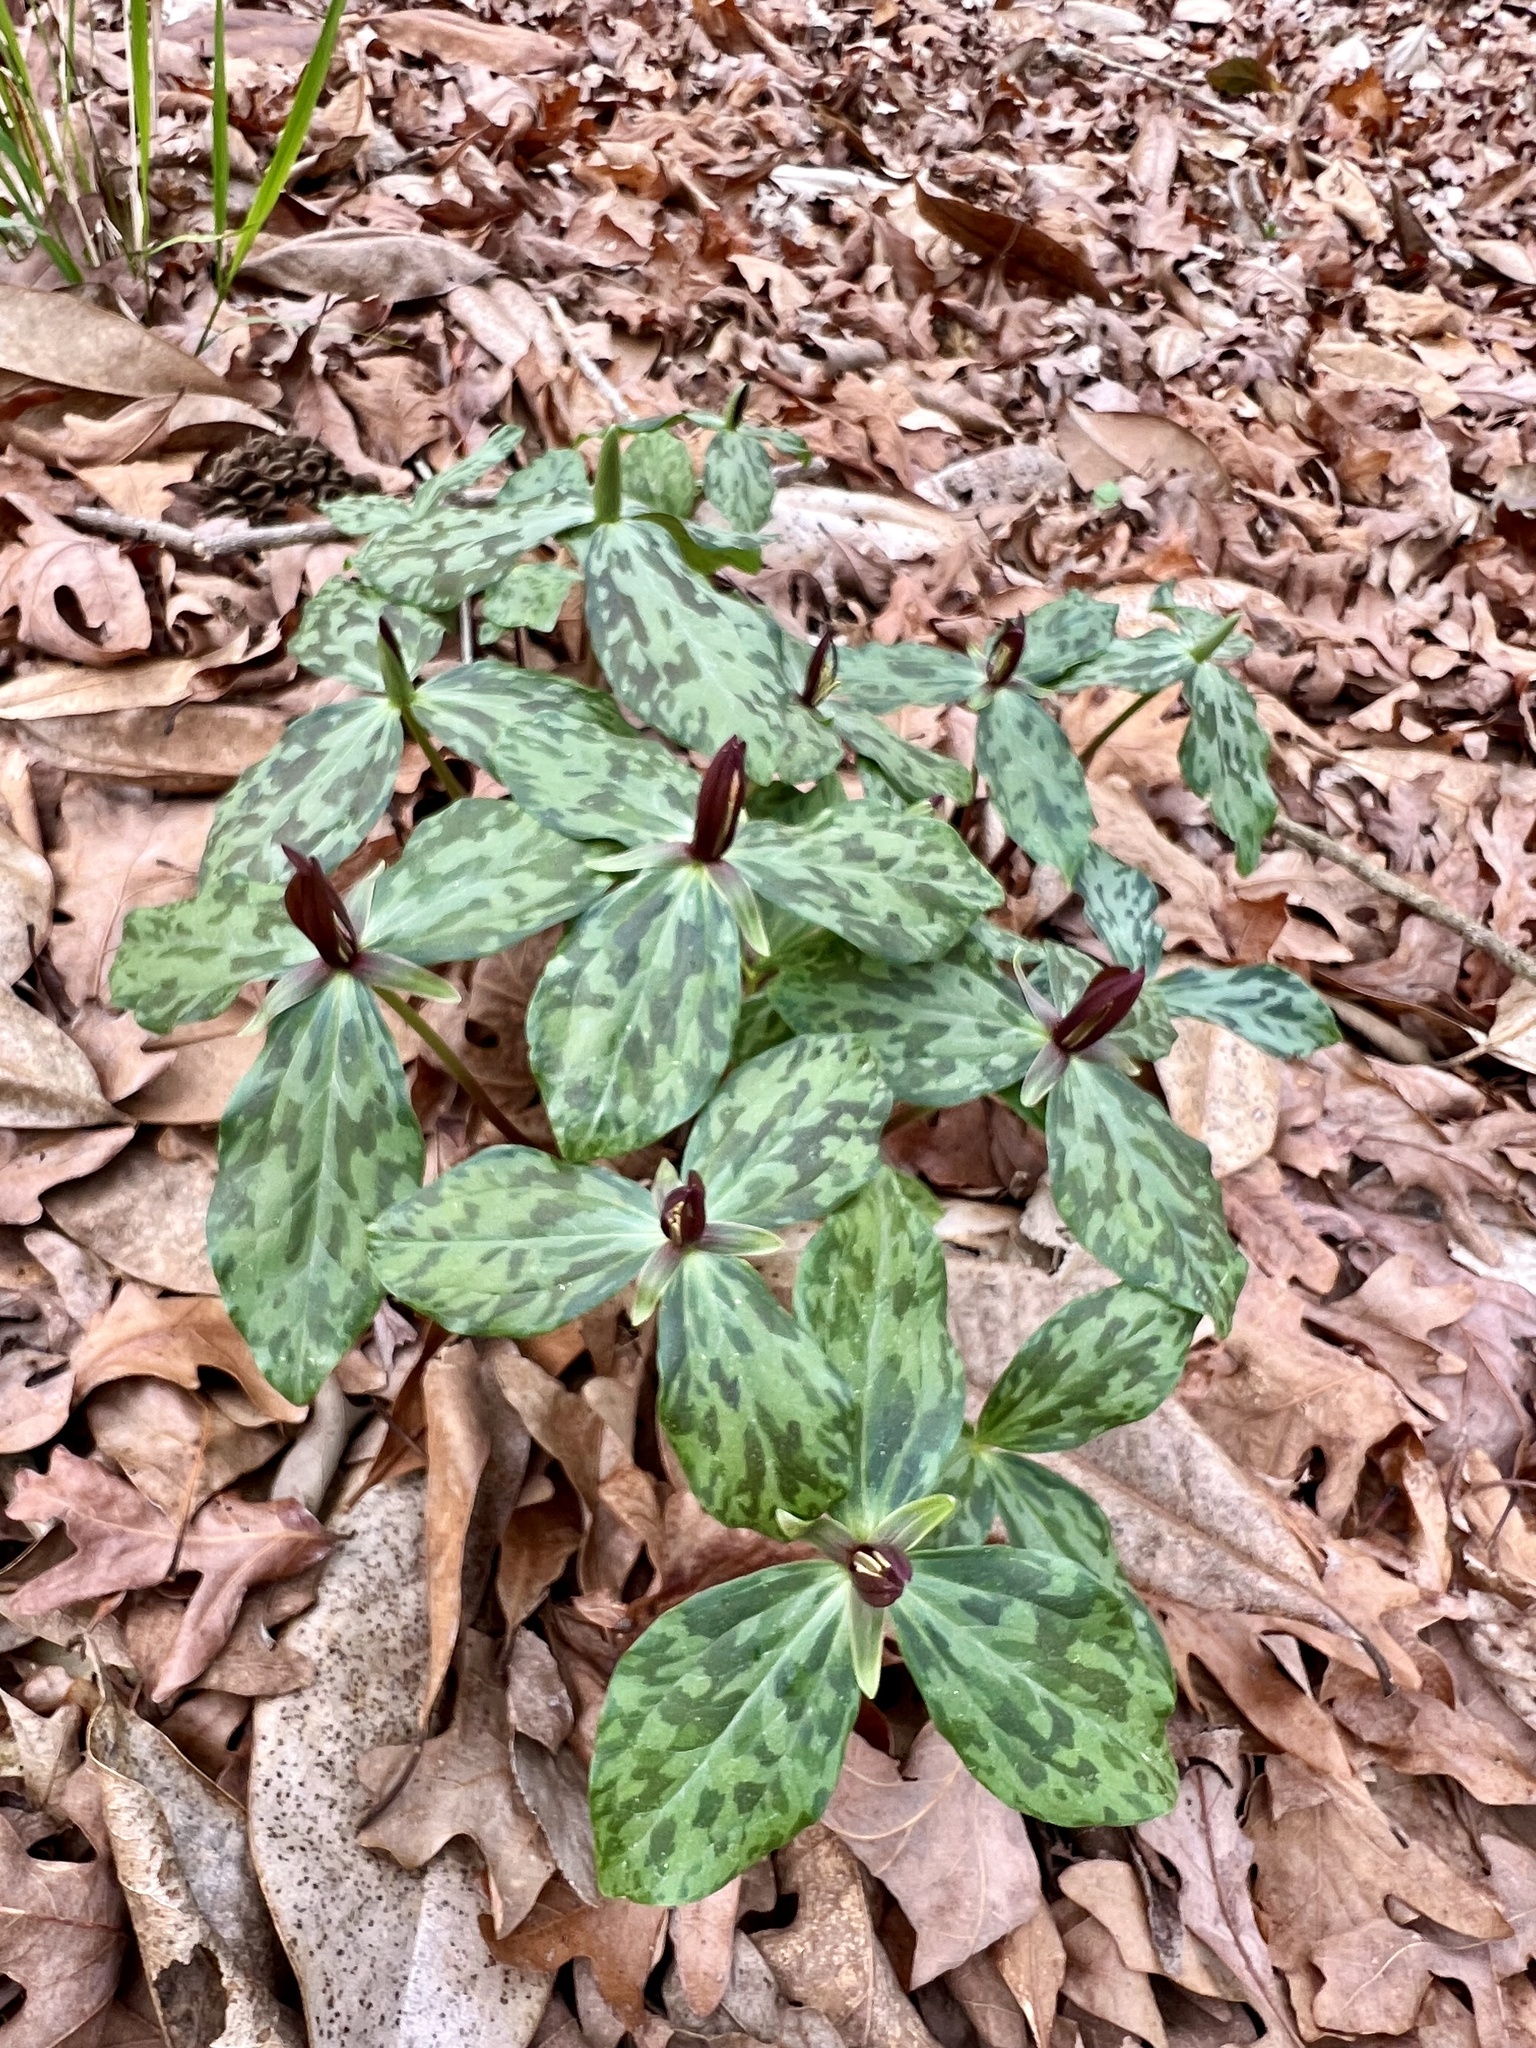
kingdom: Plantae
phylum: Tracheophyta
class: Liliopsida
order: Liliales
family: Melanthiaceae
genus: Trillium
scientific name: Trillium gracile
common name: Graceful trillium
